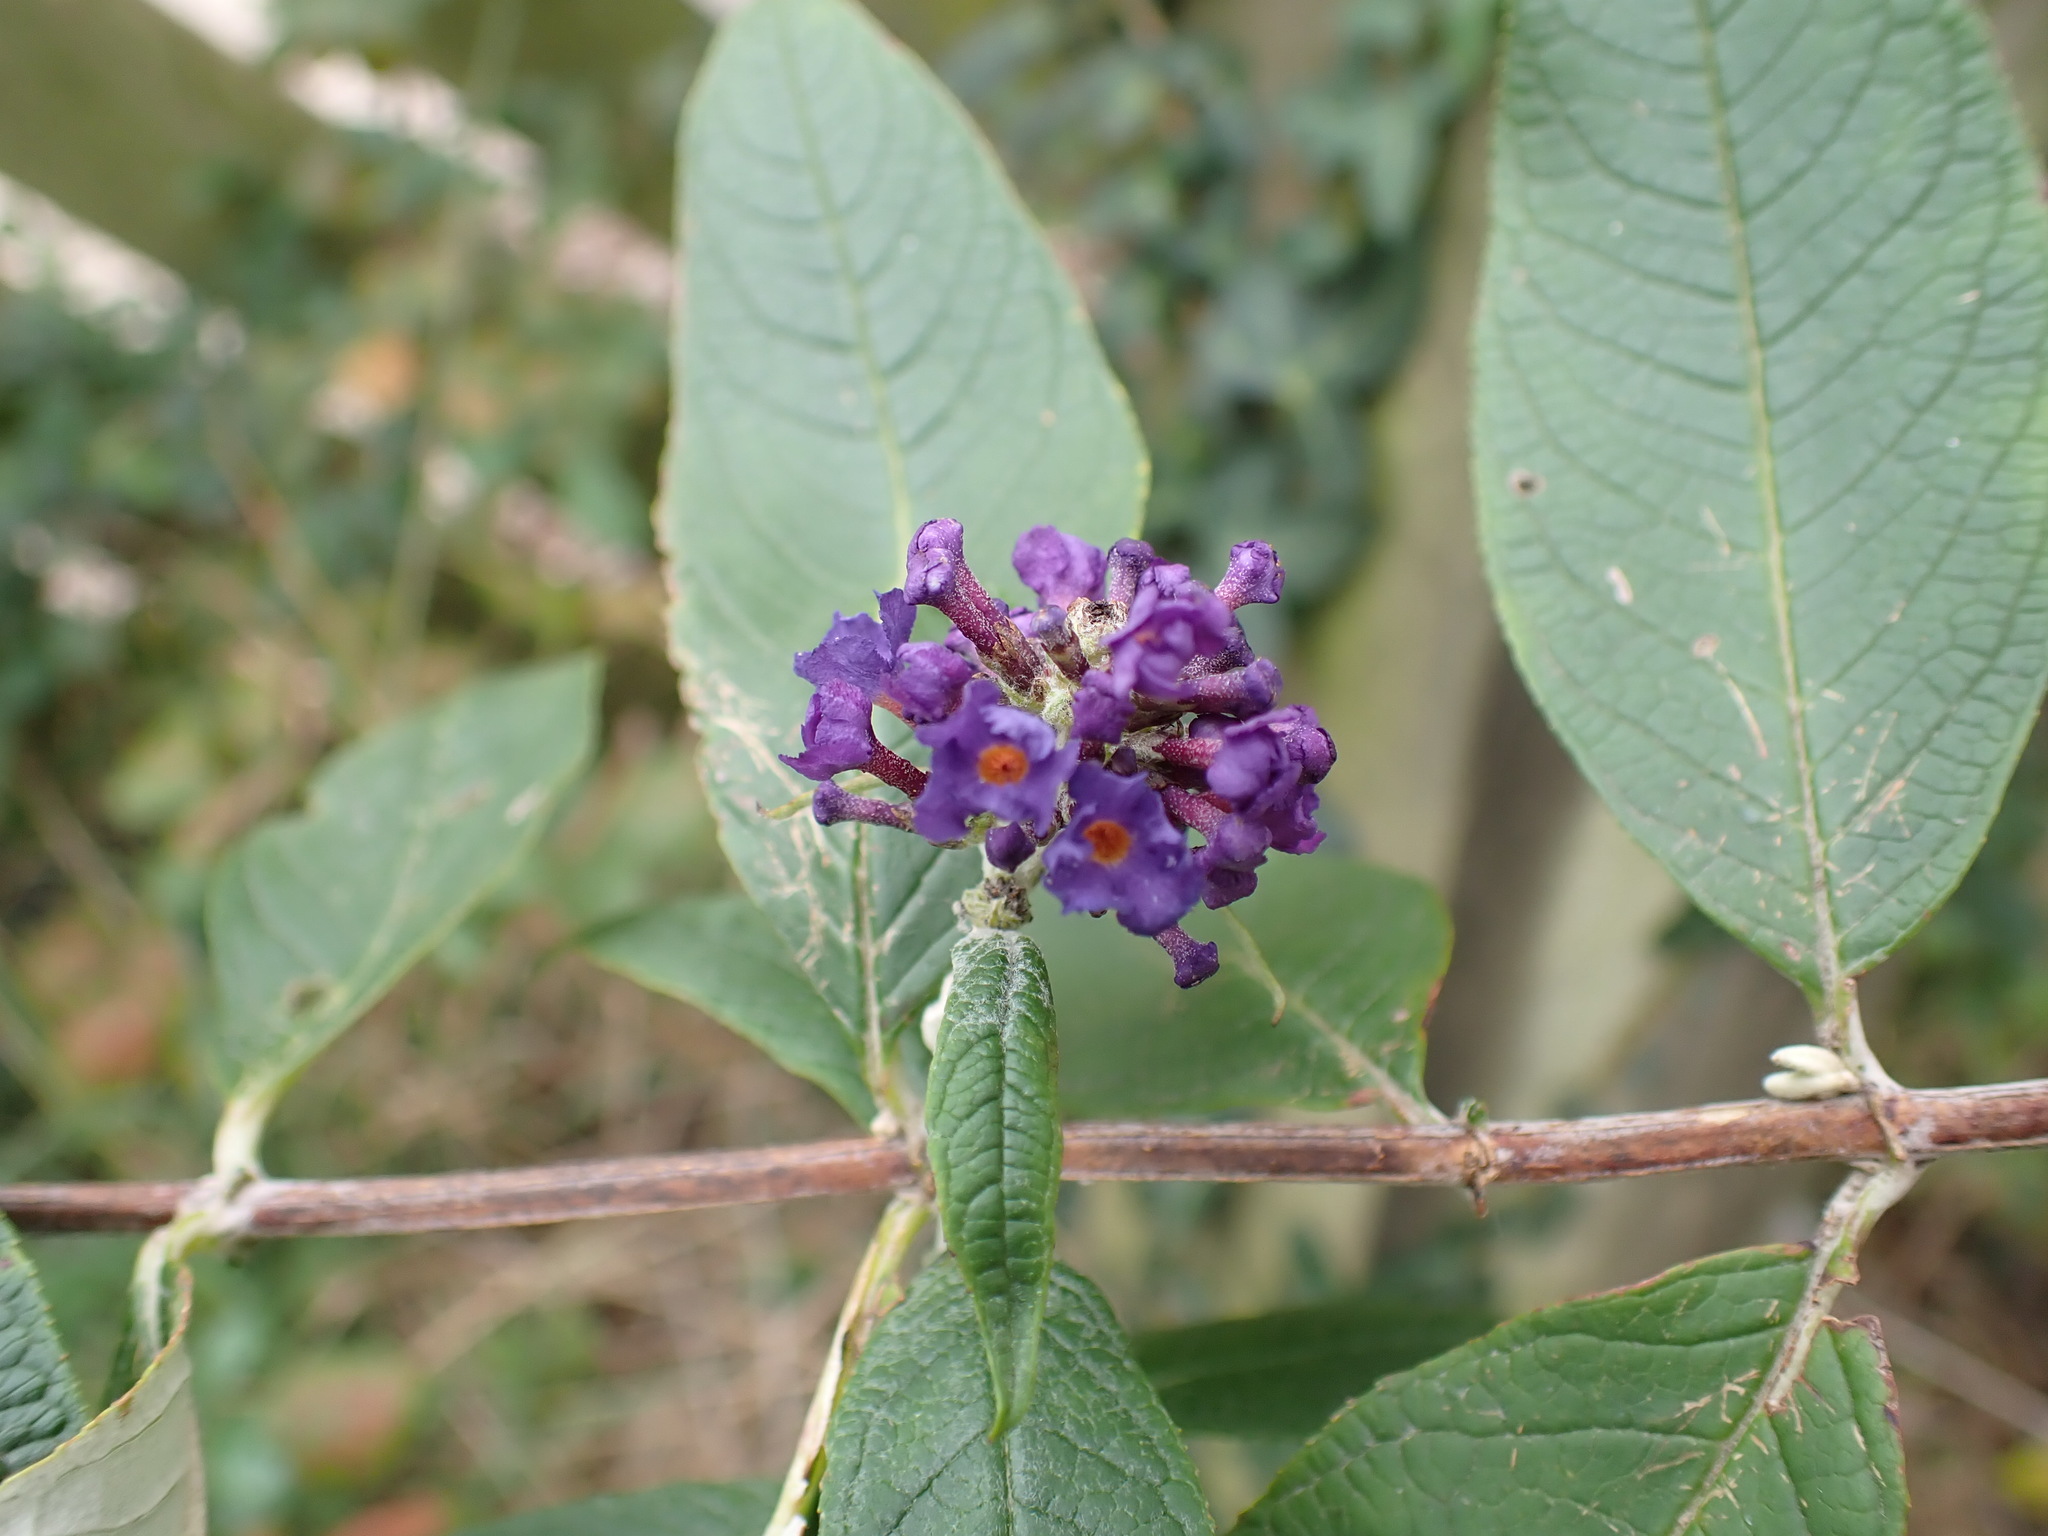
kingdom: Plantae
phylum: Tracheophyta
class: Magnoliopsida
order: Lamiales
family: Scrophulariaceae
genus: Buddleja
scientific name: Buddleja davidii
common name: Butterfly-bush
